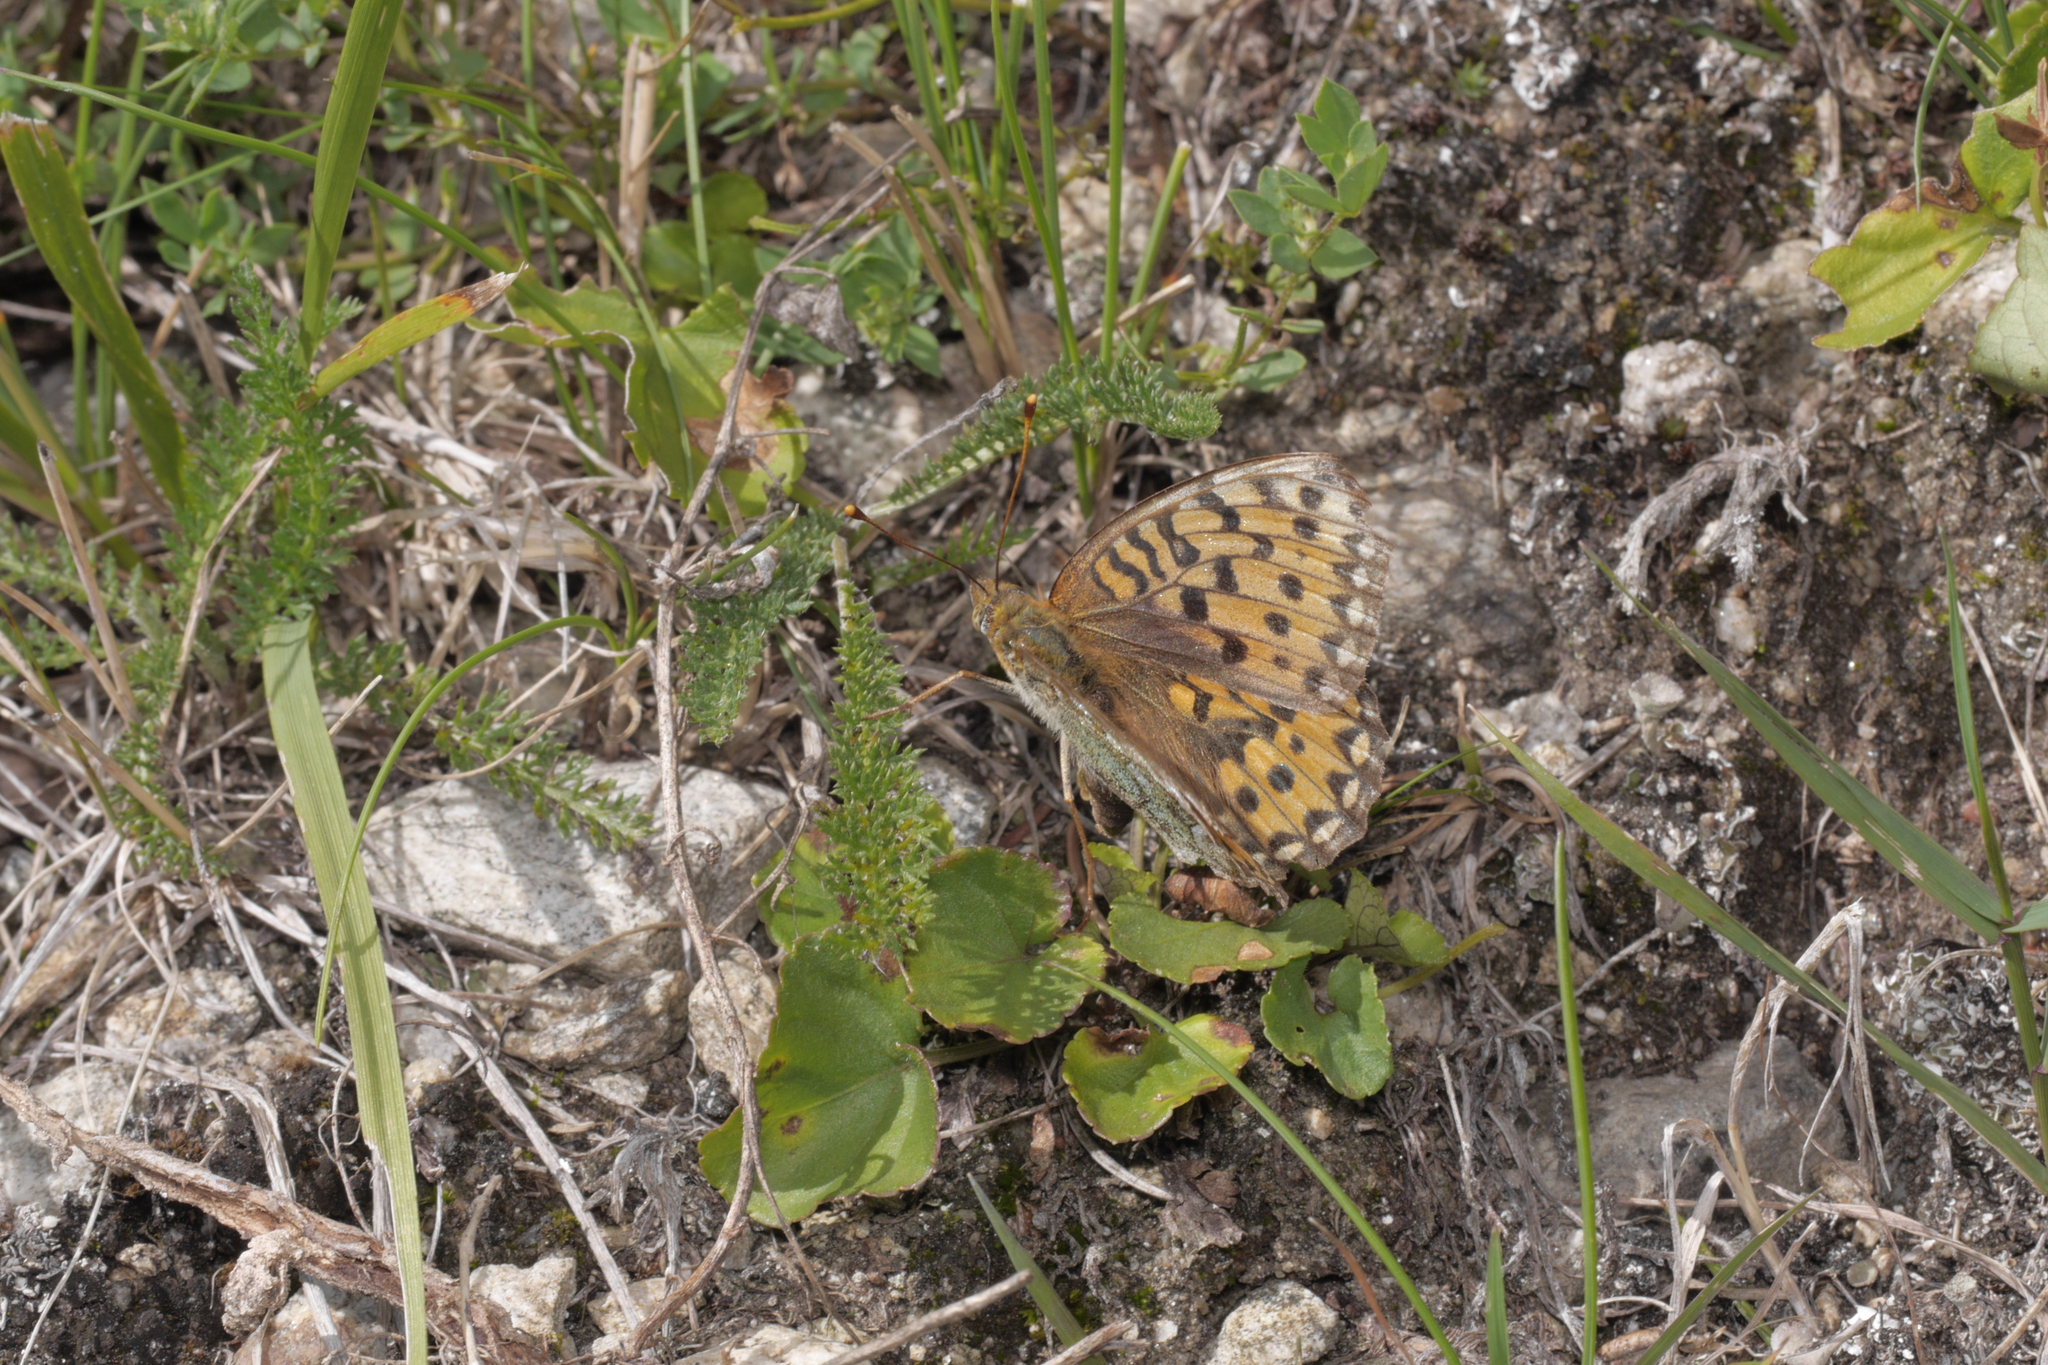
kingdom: Animalia
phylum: Arthropoda
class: Insecta
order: Lepidoptera
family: Nymphalidae
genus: Speyeria
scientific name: Speyeria aglaja
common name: Dark green fritillary
